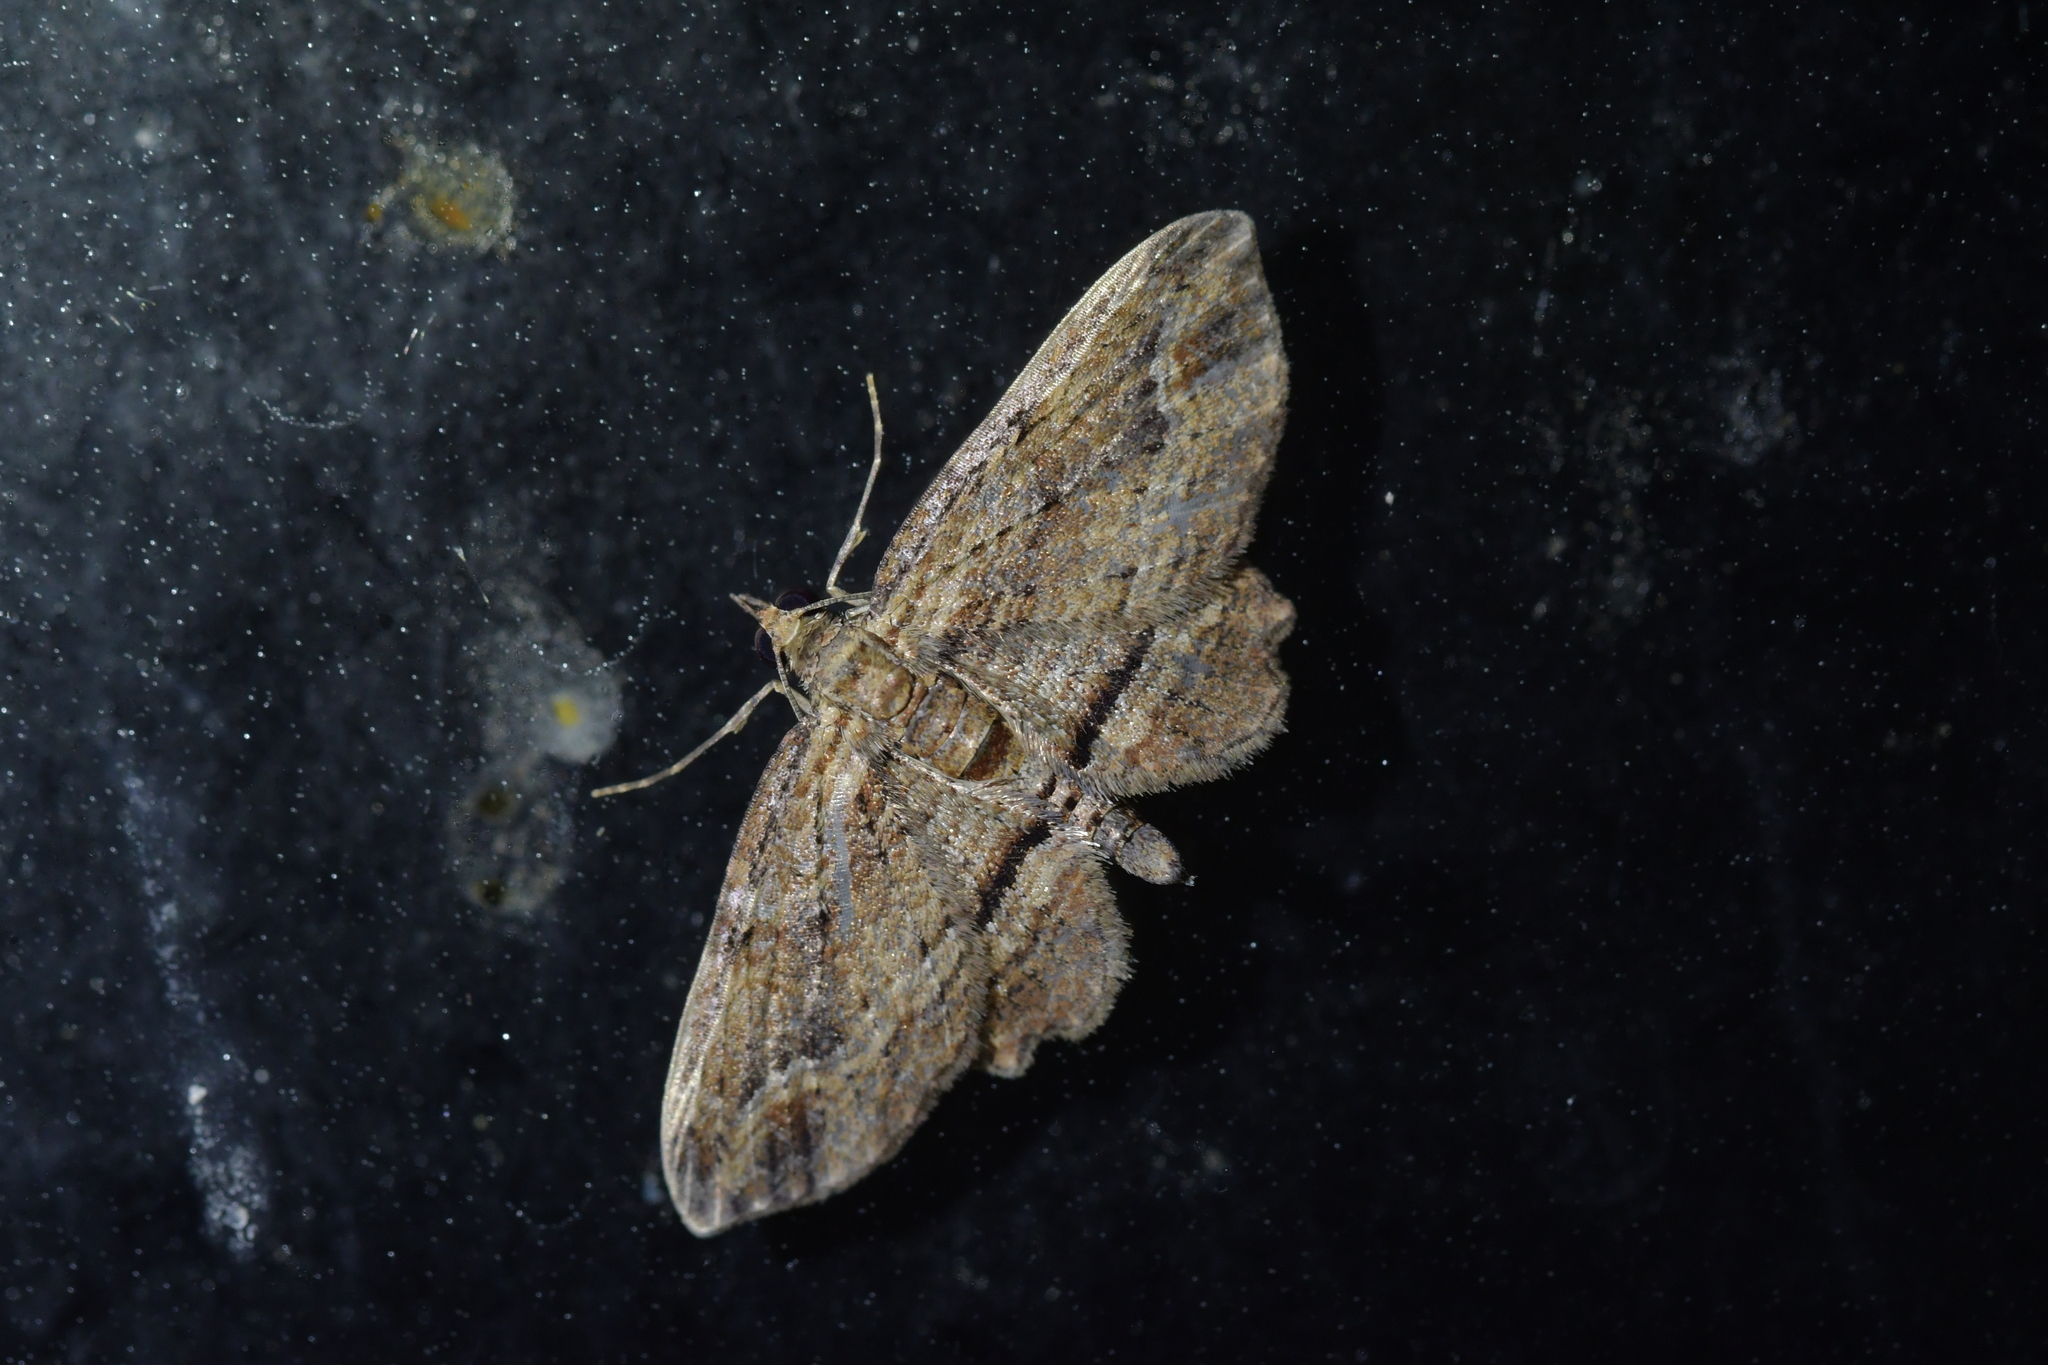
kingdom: Animalia
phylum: Arthropoda
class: Insecta
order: Lepidoptera
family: Geometridae
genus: Chloroclystis
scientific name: Chloroclystis filata
